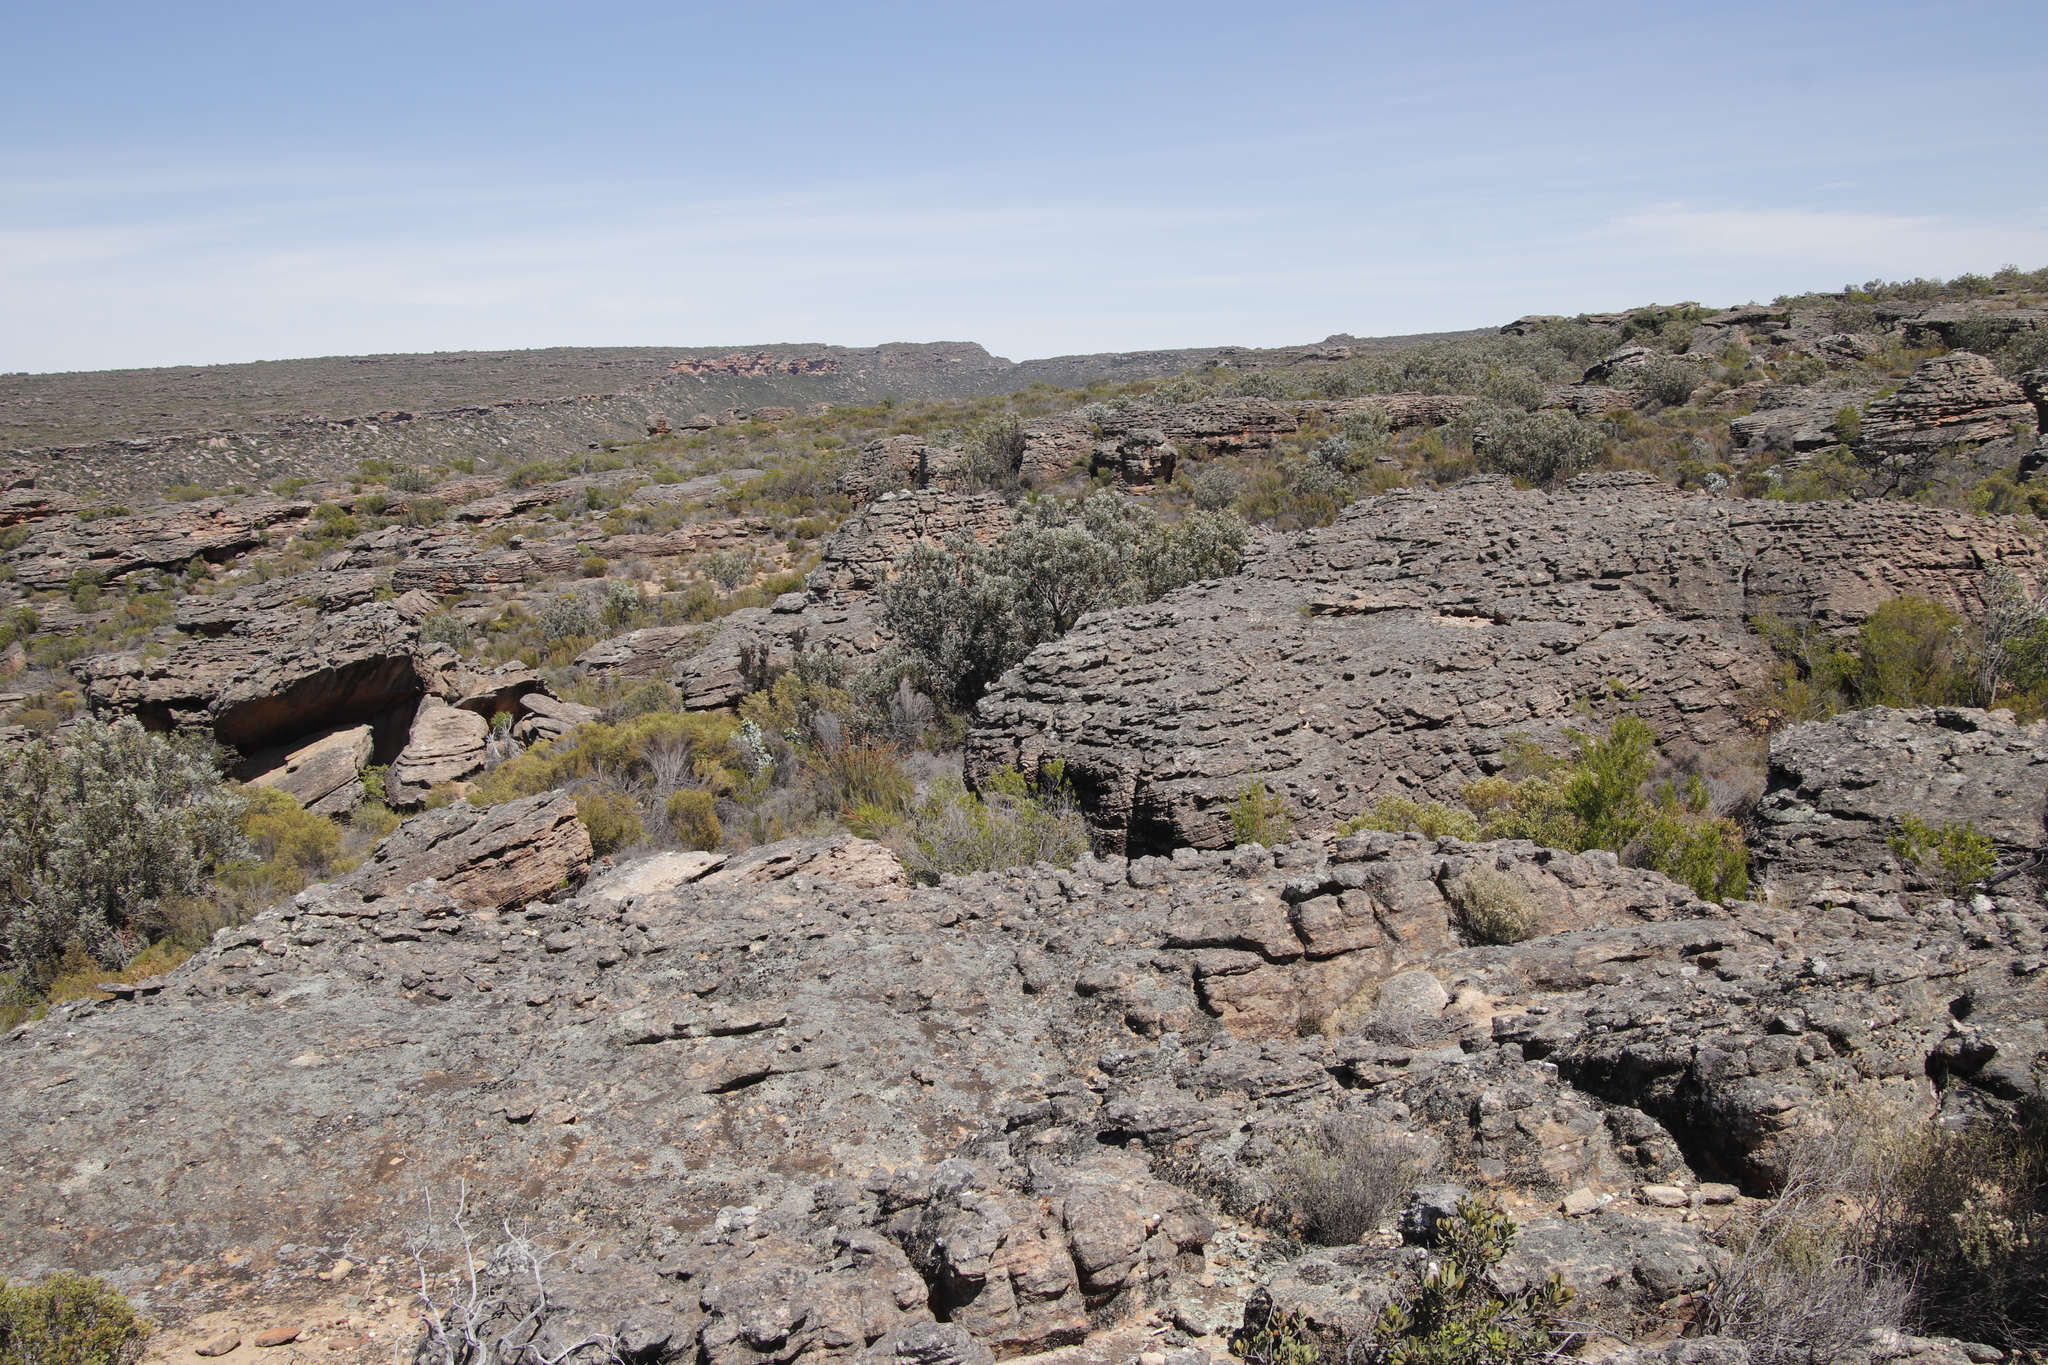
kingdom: Plantae
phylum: Tracheophyta
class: Magnoliopsida
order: Proteales
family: Proteaceae
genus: Protea
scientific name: Protea laurifolia
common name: Grey-leaf sugarbsh
